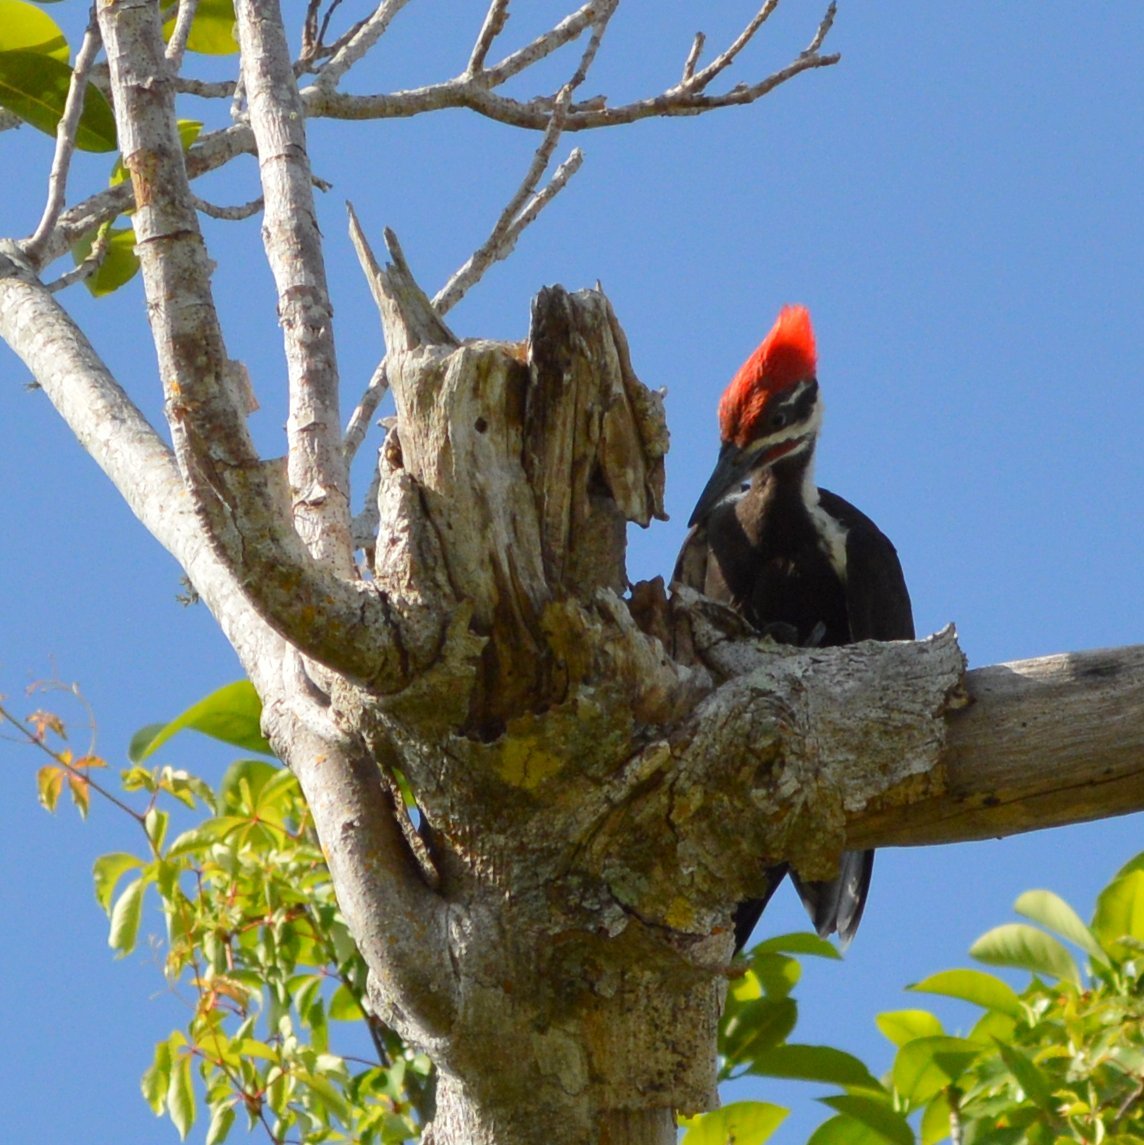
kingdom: Animalia
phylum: Chordata
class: Aves
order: Piciformes
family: Picidae
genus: Dryocopus
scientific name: Dryocopus pileatus
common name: Pileated woodpecker
